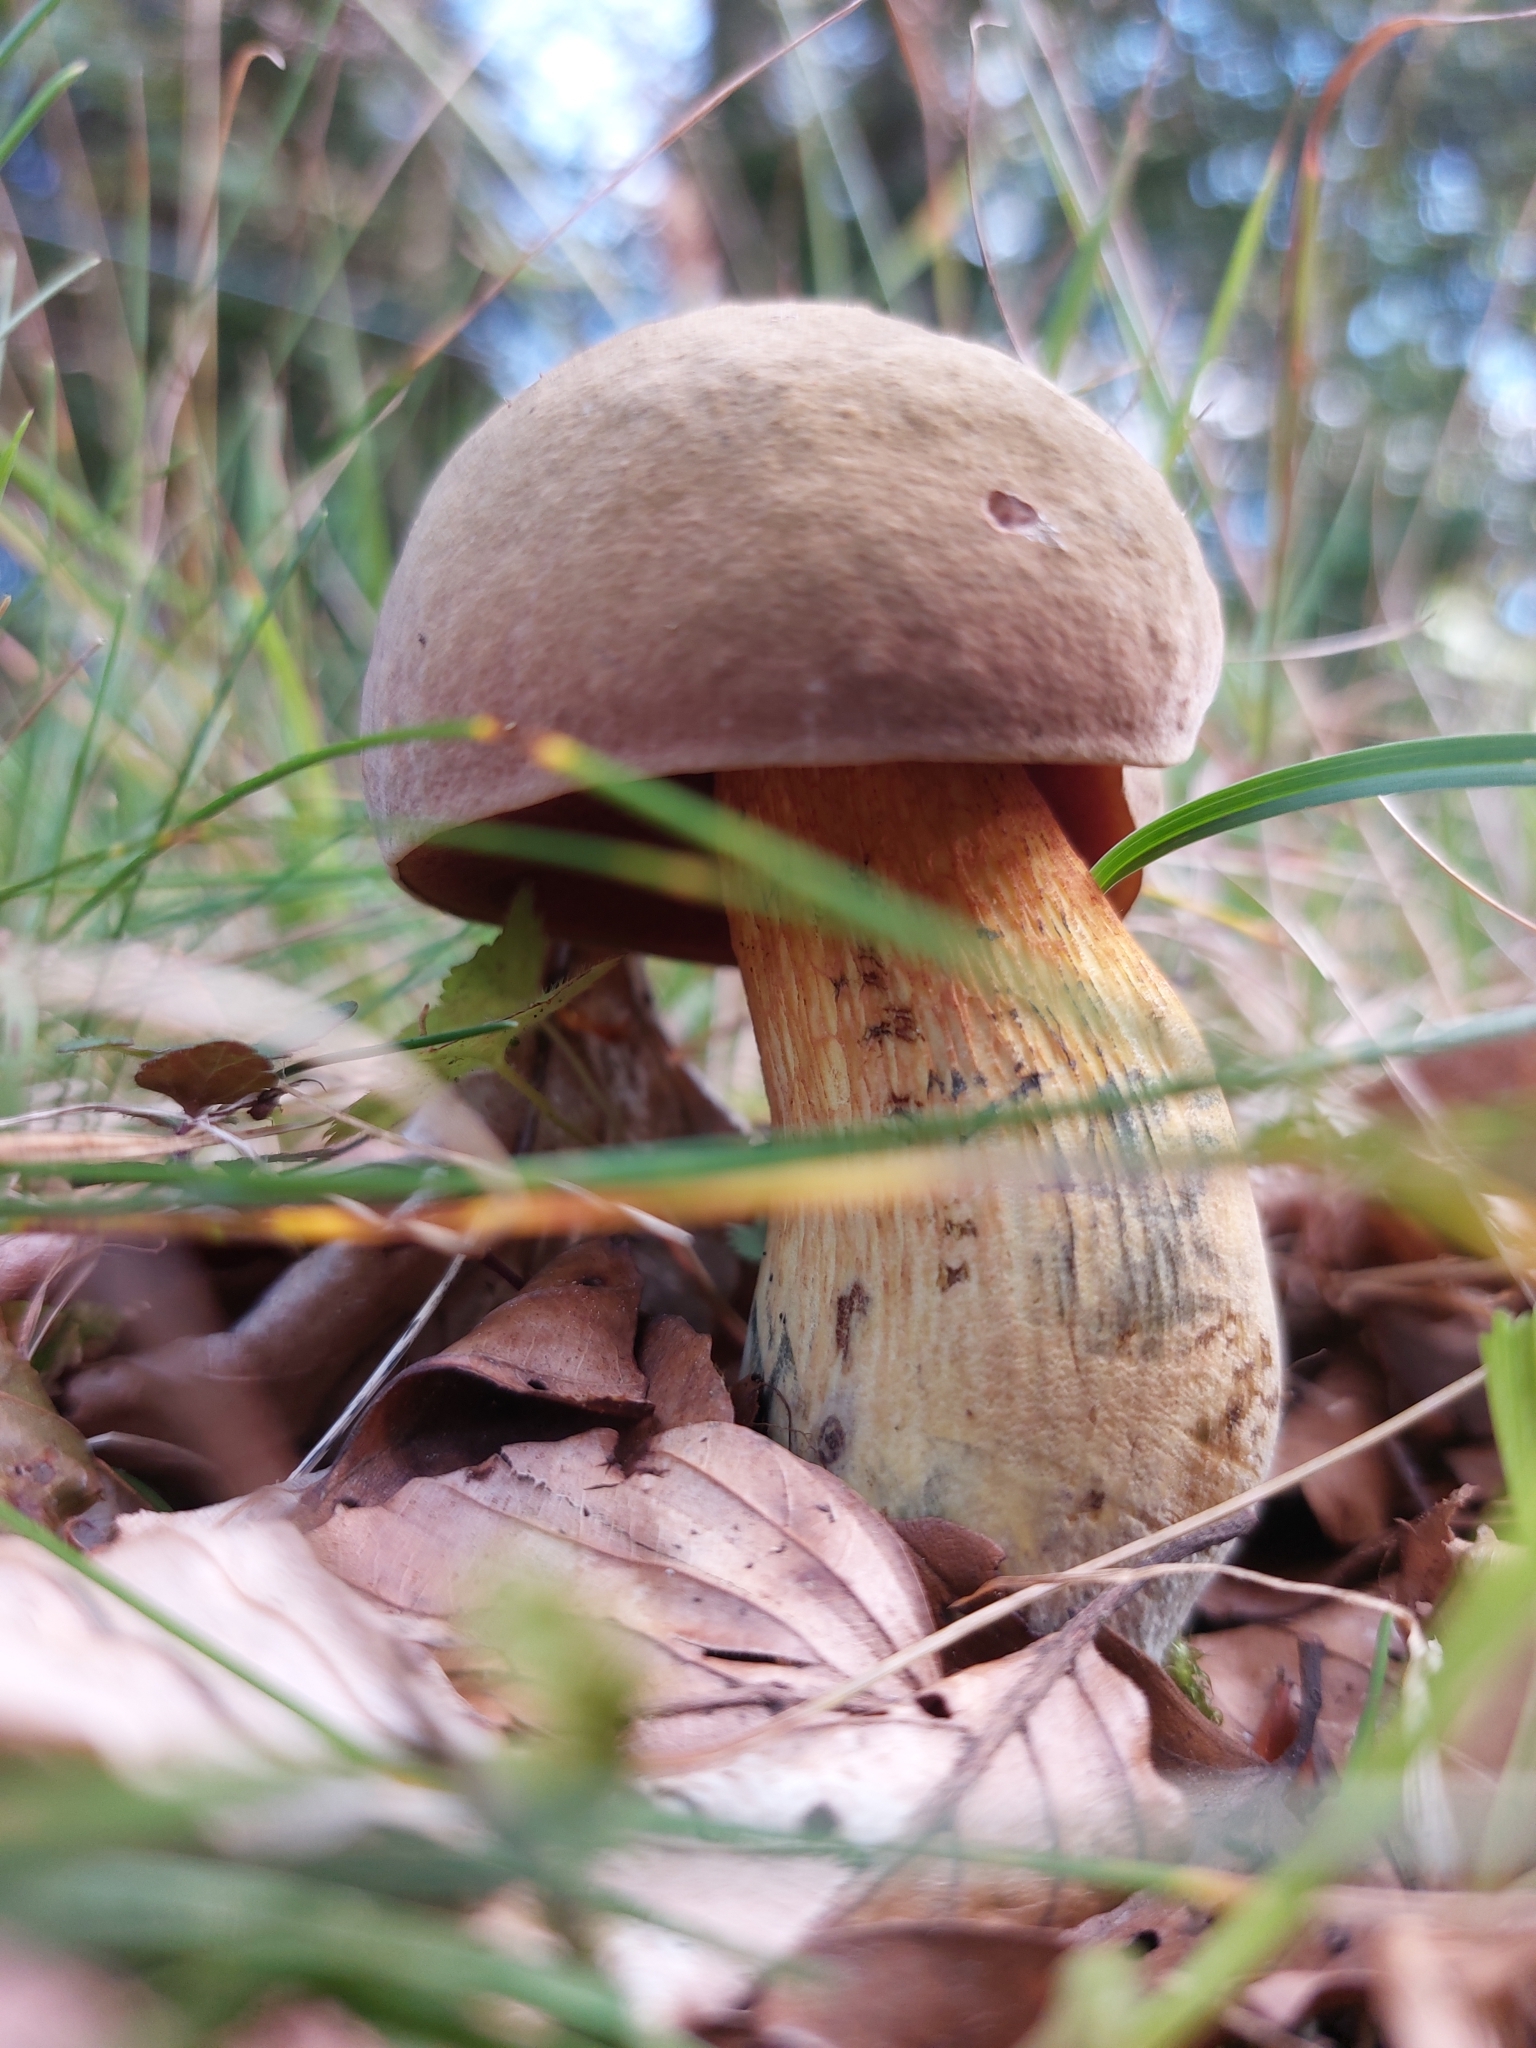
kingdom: Fungi
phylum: Basidiomycota
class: Agaricomycetes
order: Boletales
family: Boletaceae
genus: Suillellus
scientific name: Suillellus luridus
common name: Lurid bolete
